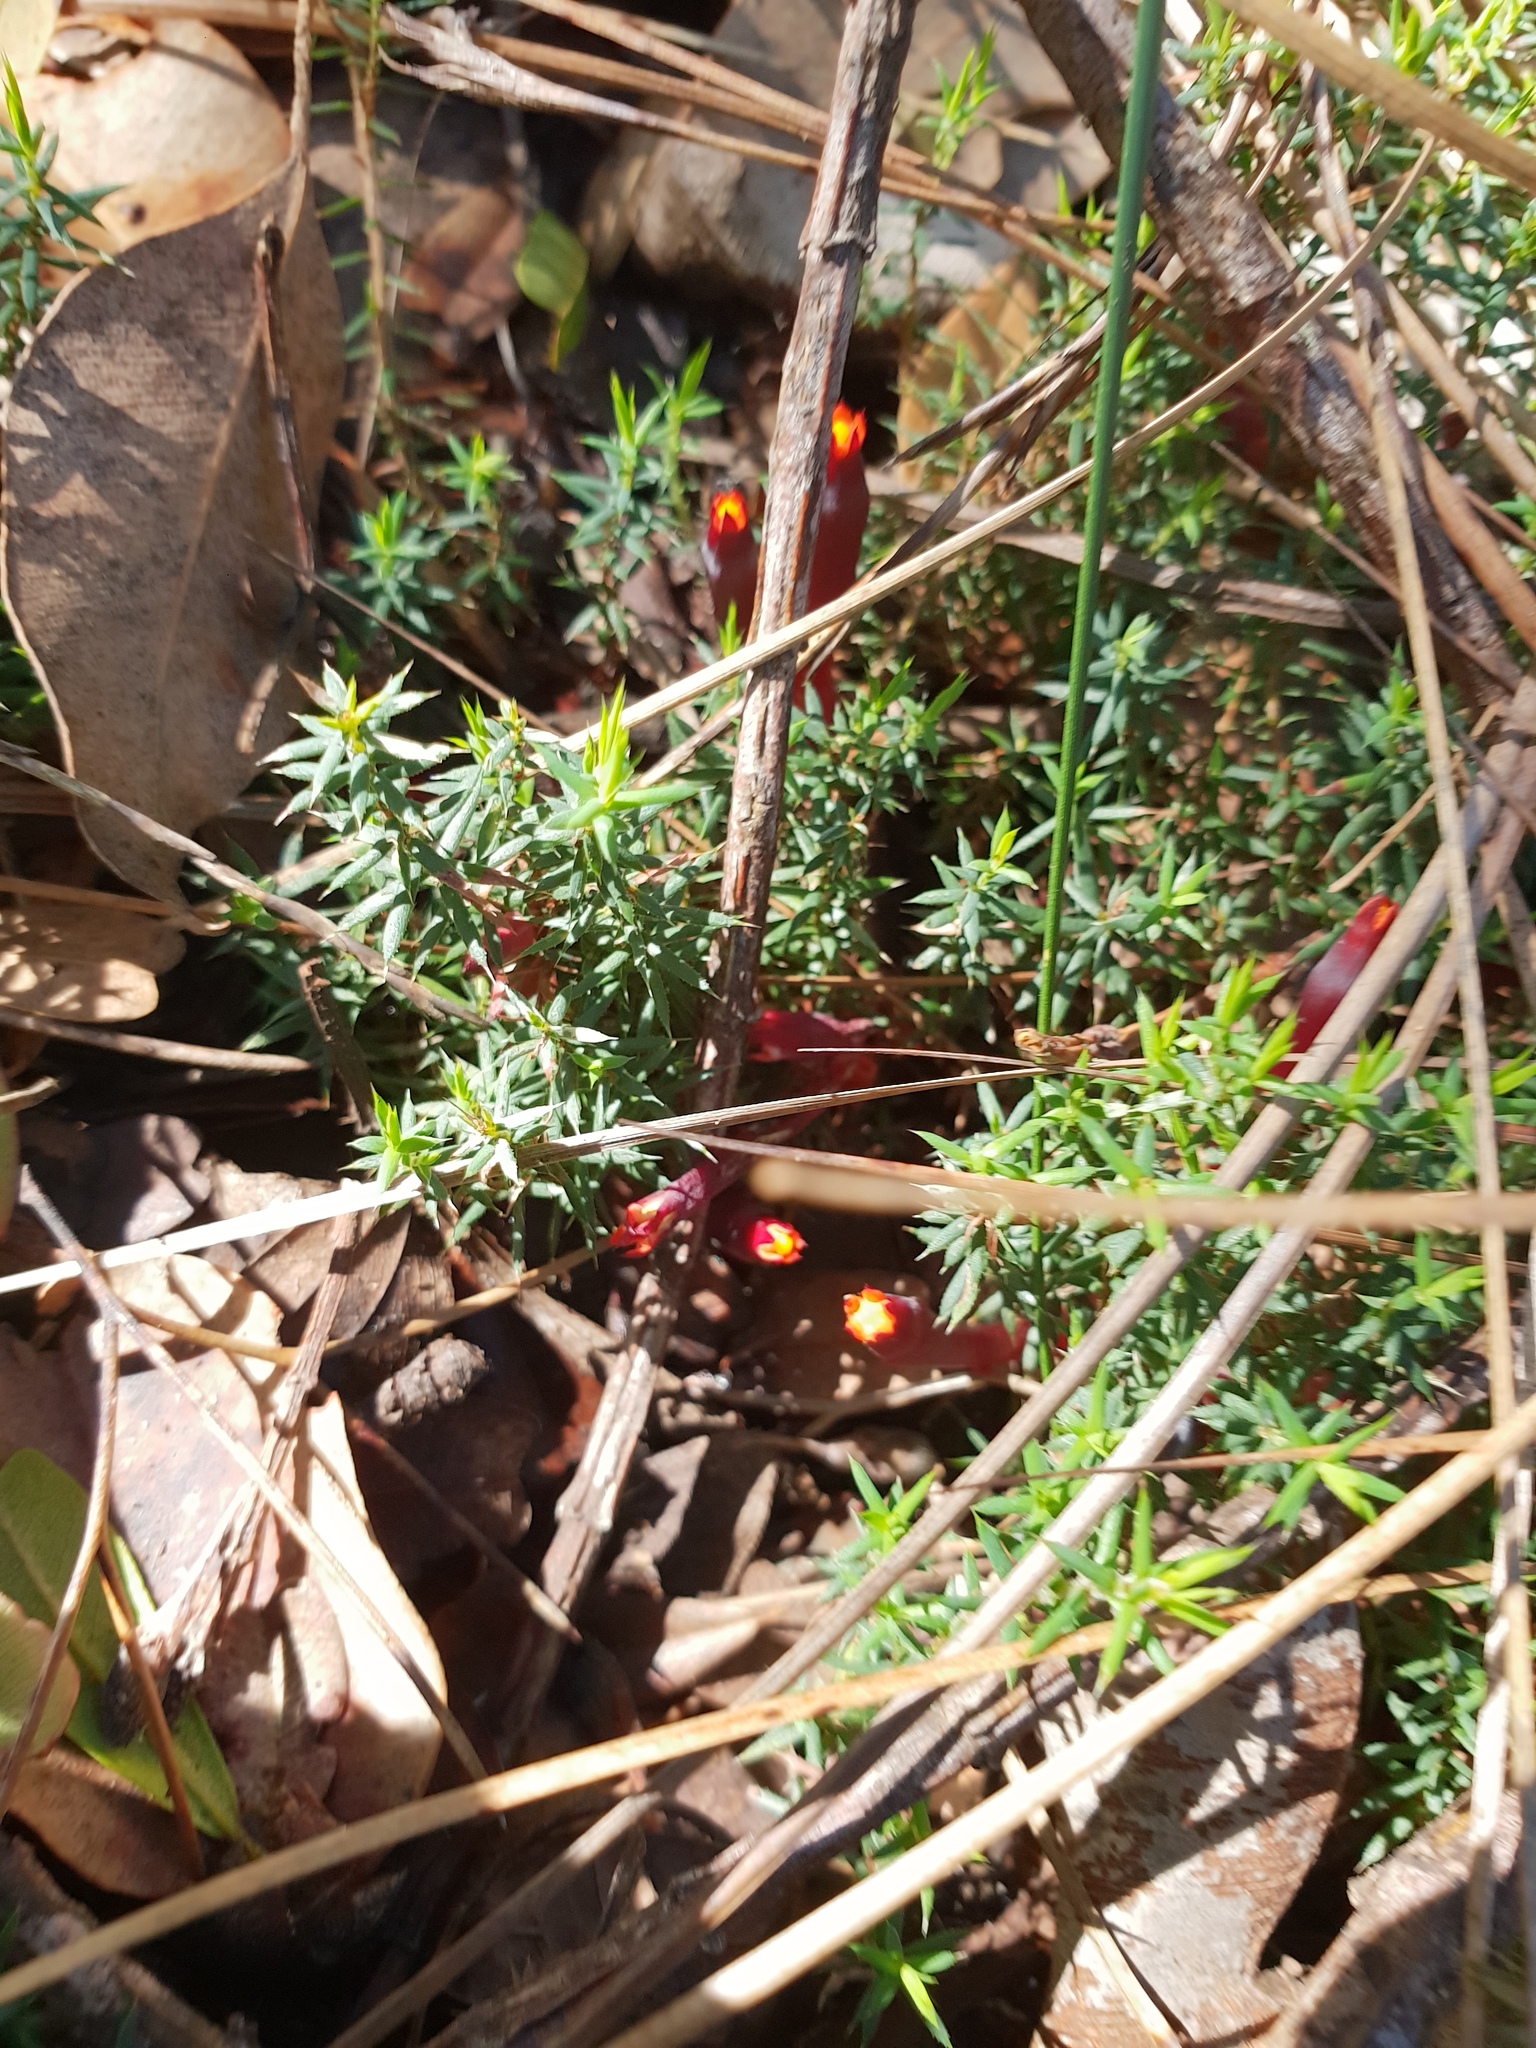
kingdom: Plantae
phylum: Tracheophyta
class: Magnoliopsida
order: Ericales
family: Ericaceae
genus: Styphelia
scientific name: Styphelia discolor
